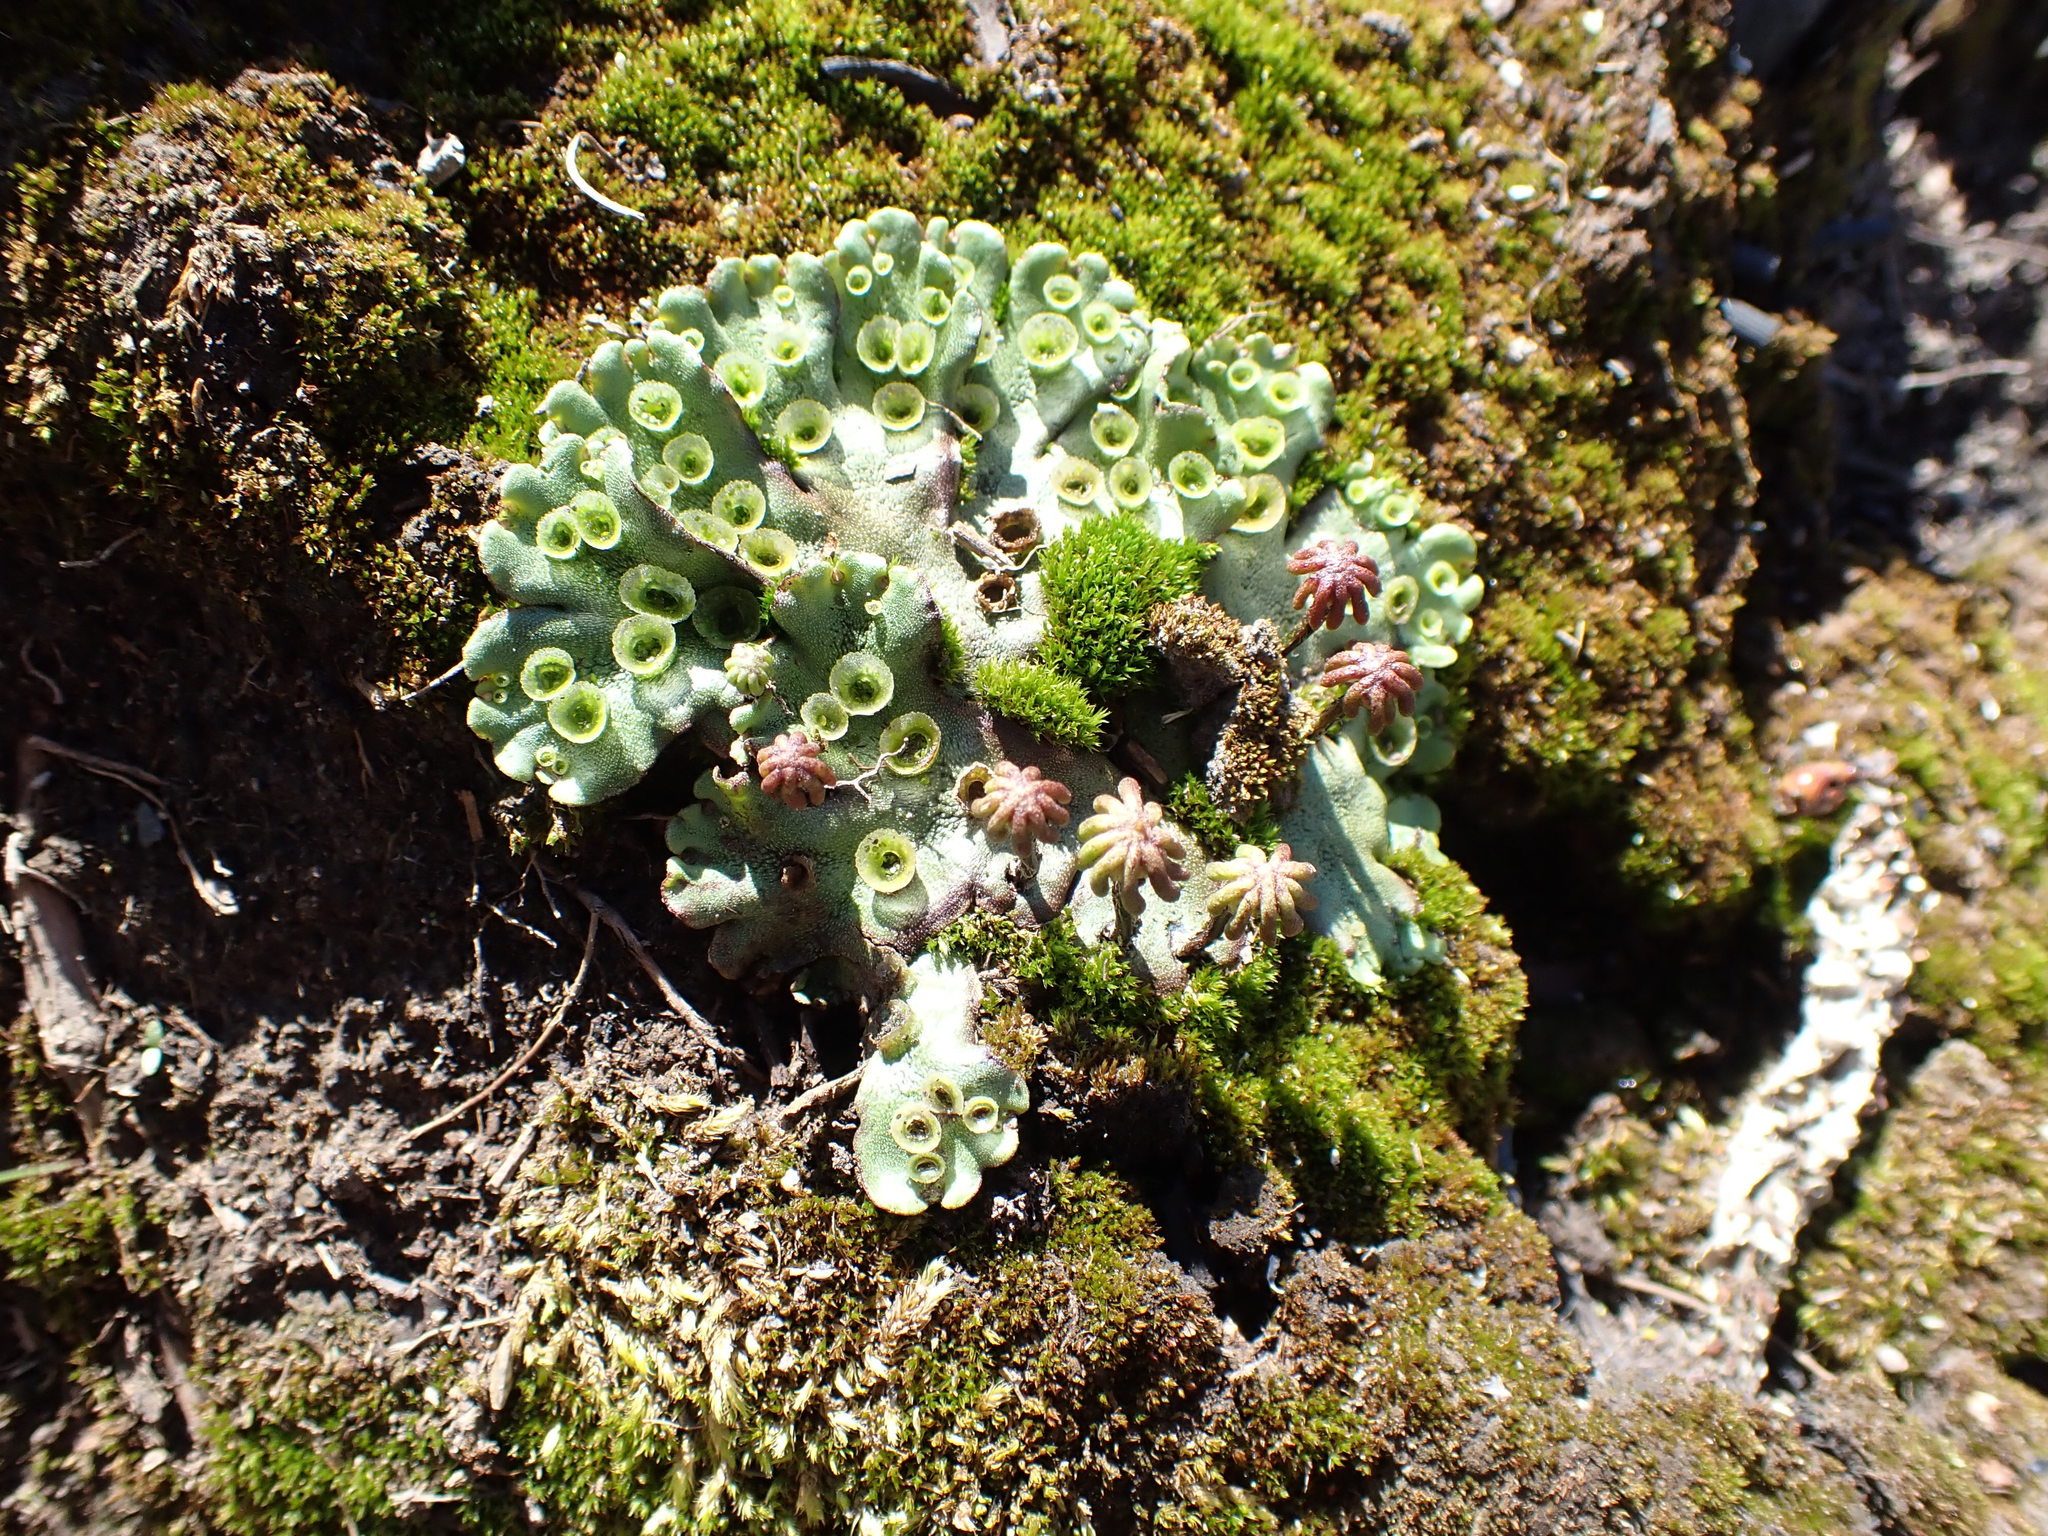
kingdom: Plantae
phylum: Marchantiophyta
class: Marchantiopsida
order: Marchantiales
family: Marchantiaceae
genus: Marchantia
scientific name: Marchantia polymorpha
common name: Common liverwort
